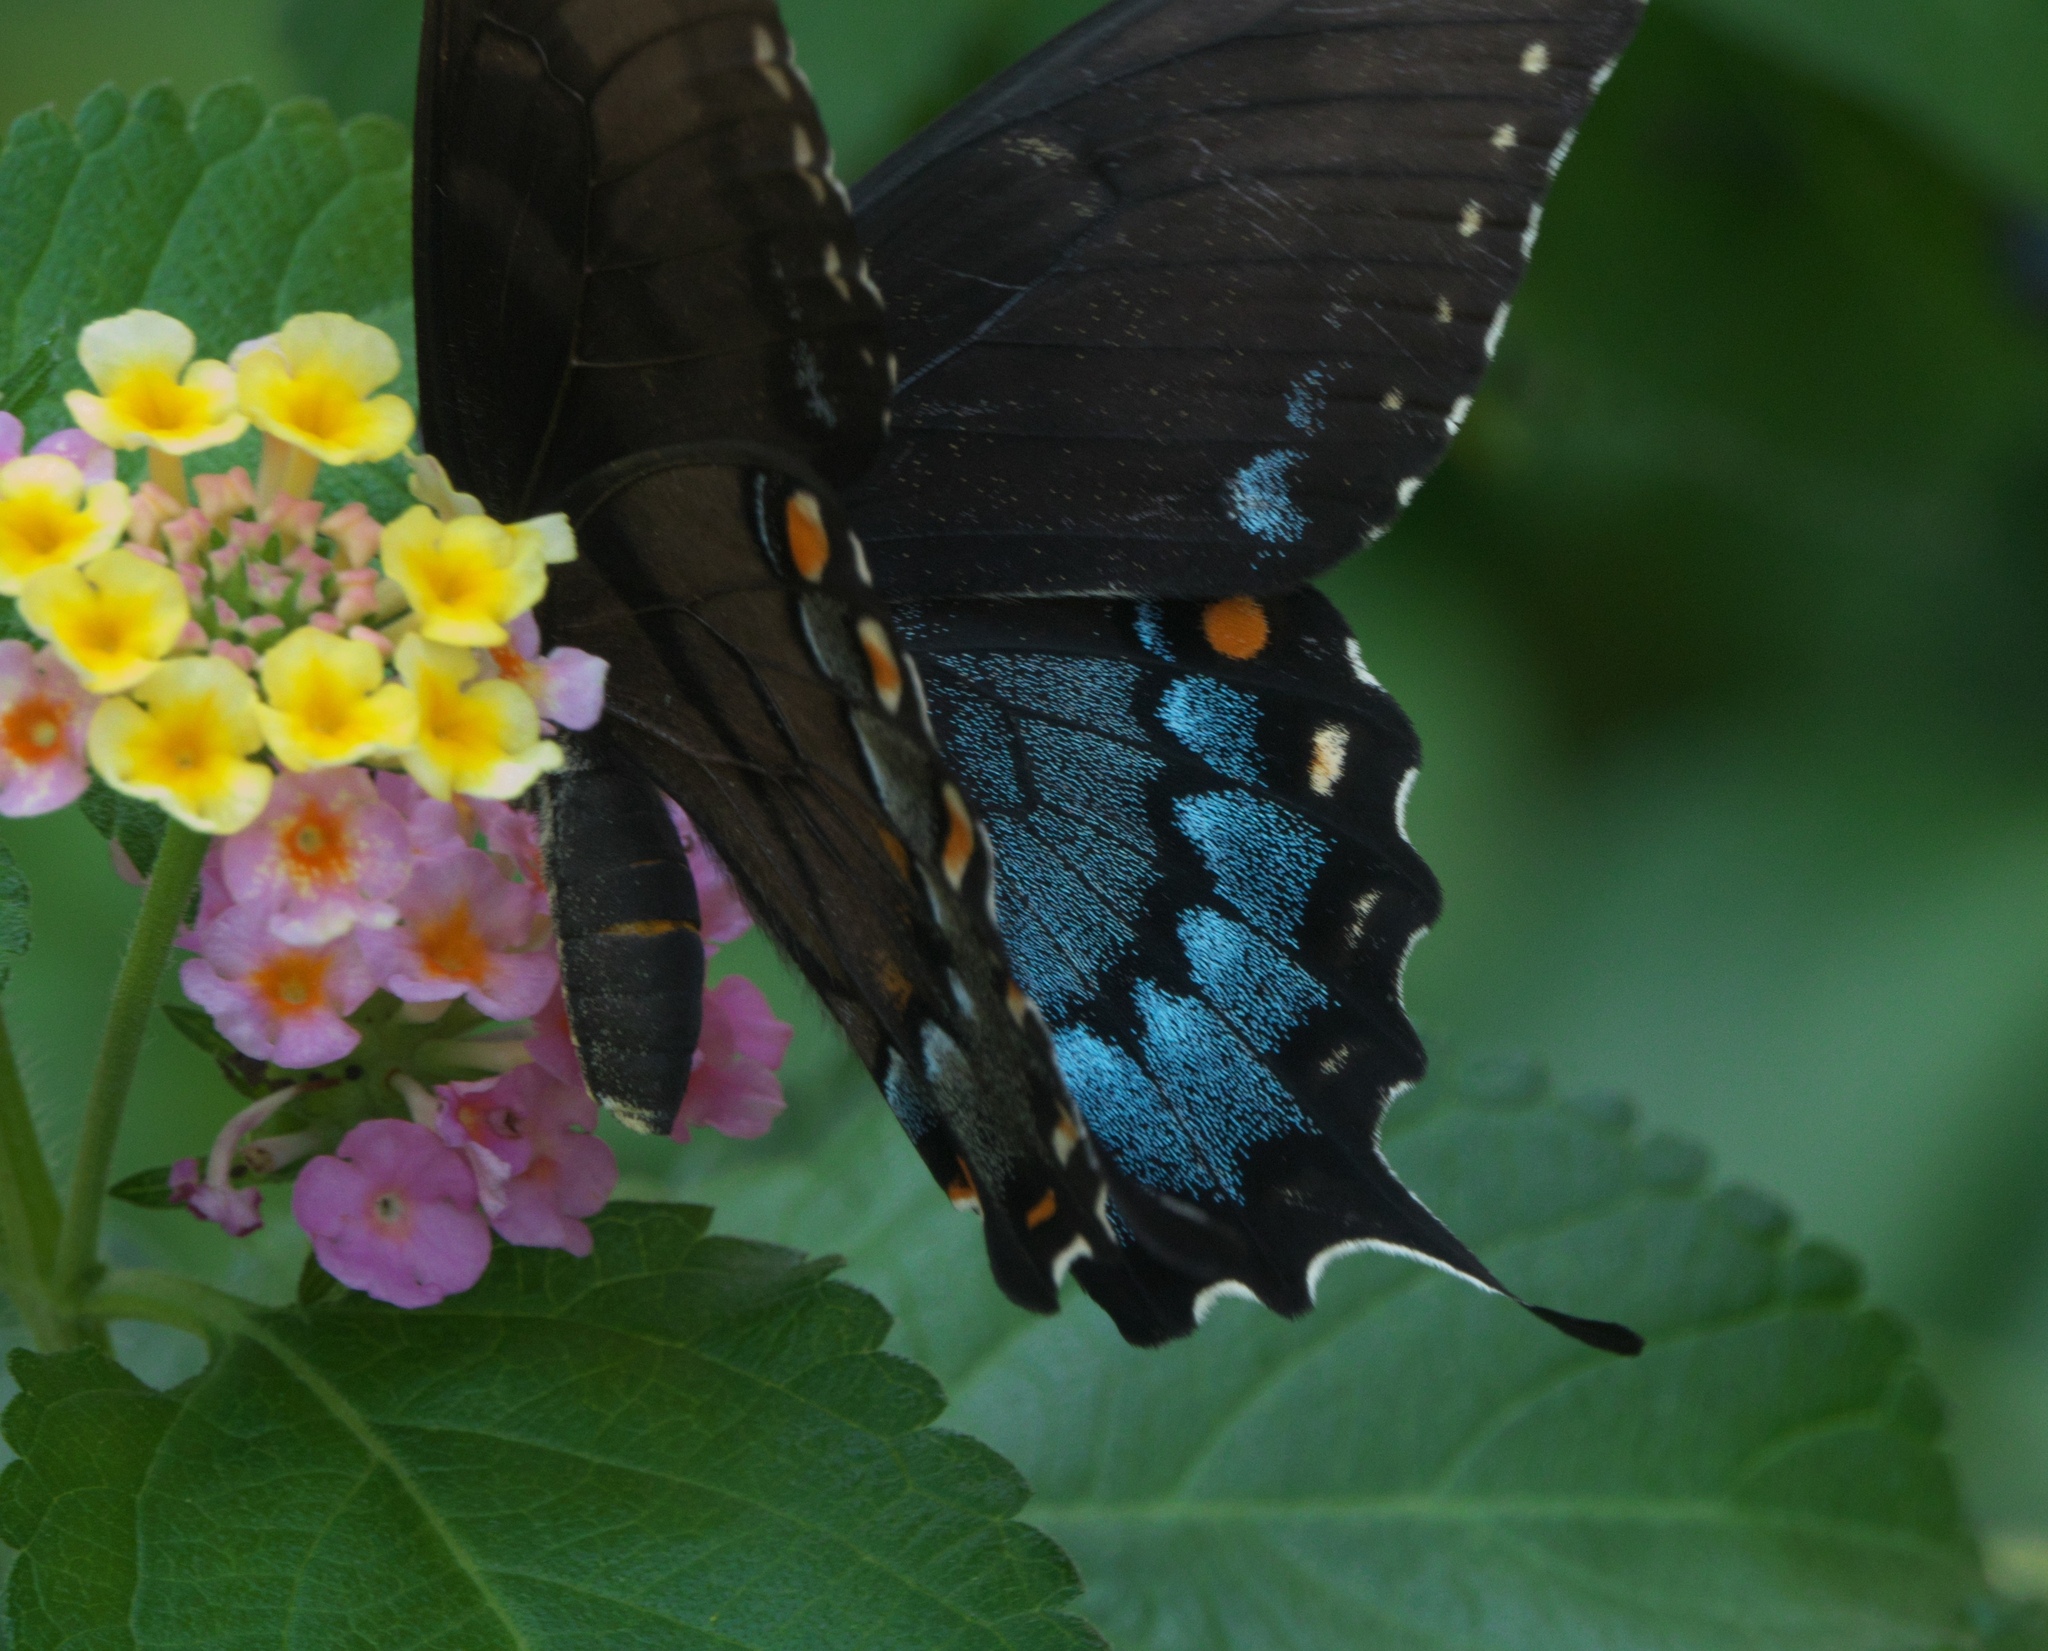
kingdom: Animalia
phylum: Arthropoda
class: Insecta
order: Lepidoptera
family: Papilionidae
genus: Papilio
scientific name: Papilio glaucus
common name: Tiger swallowtail
